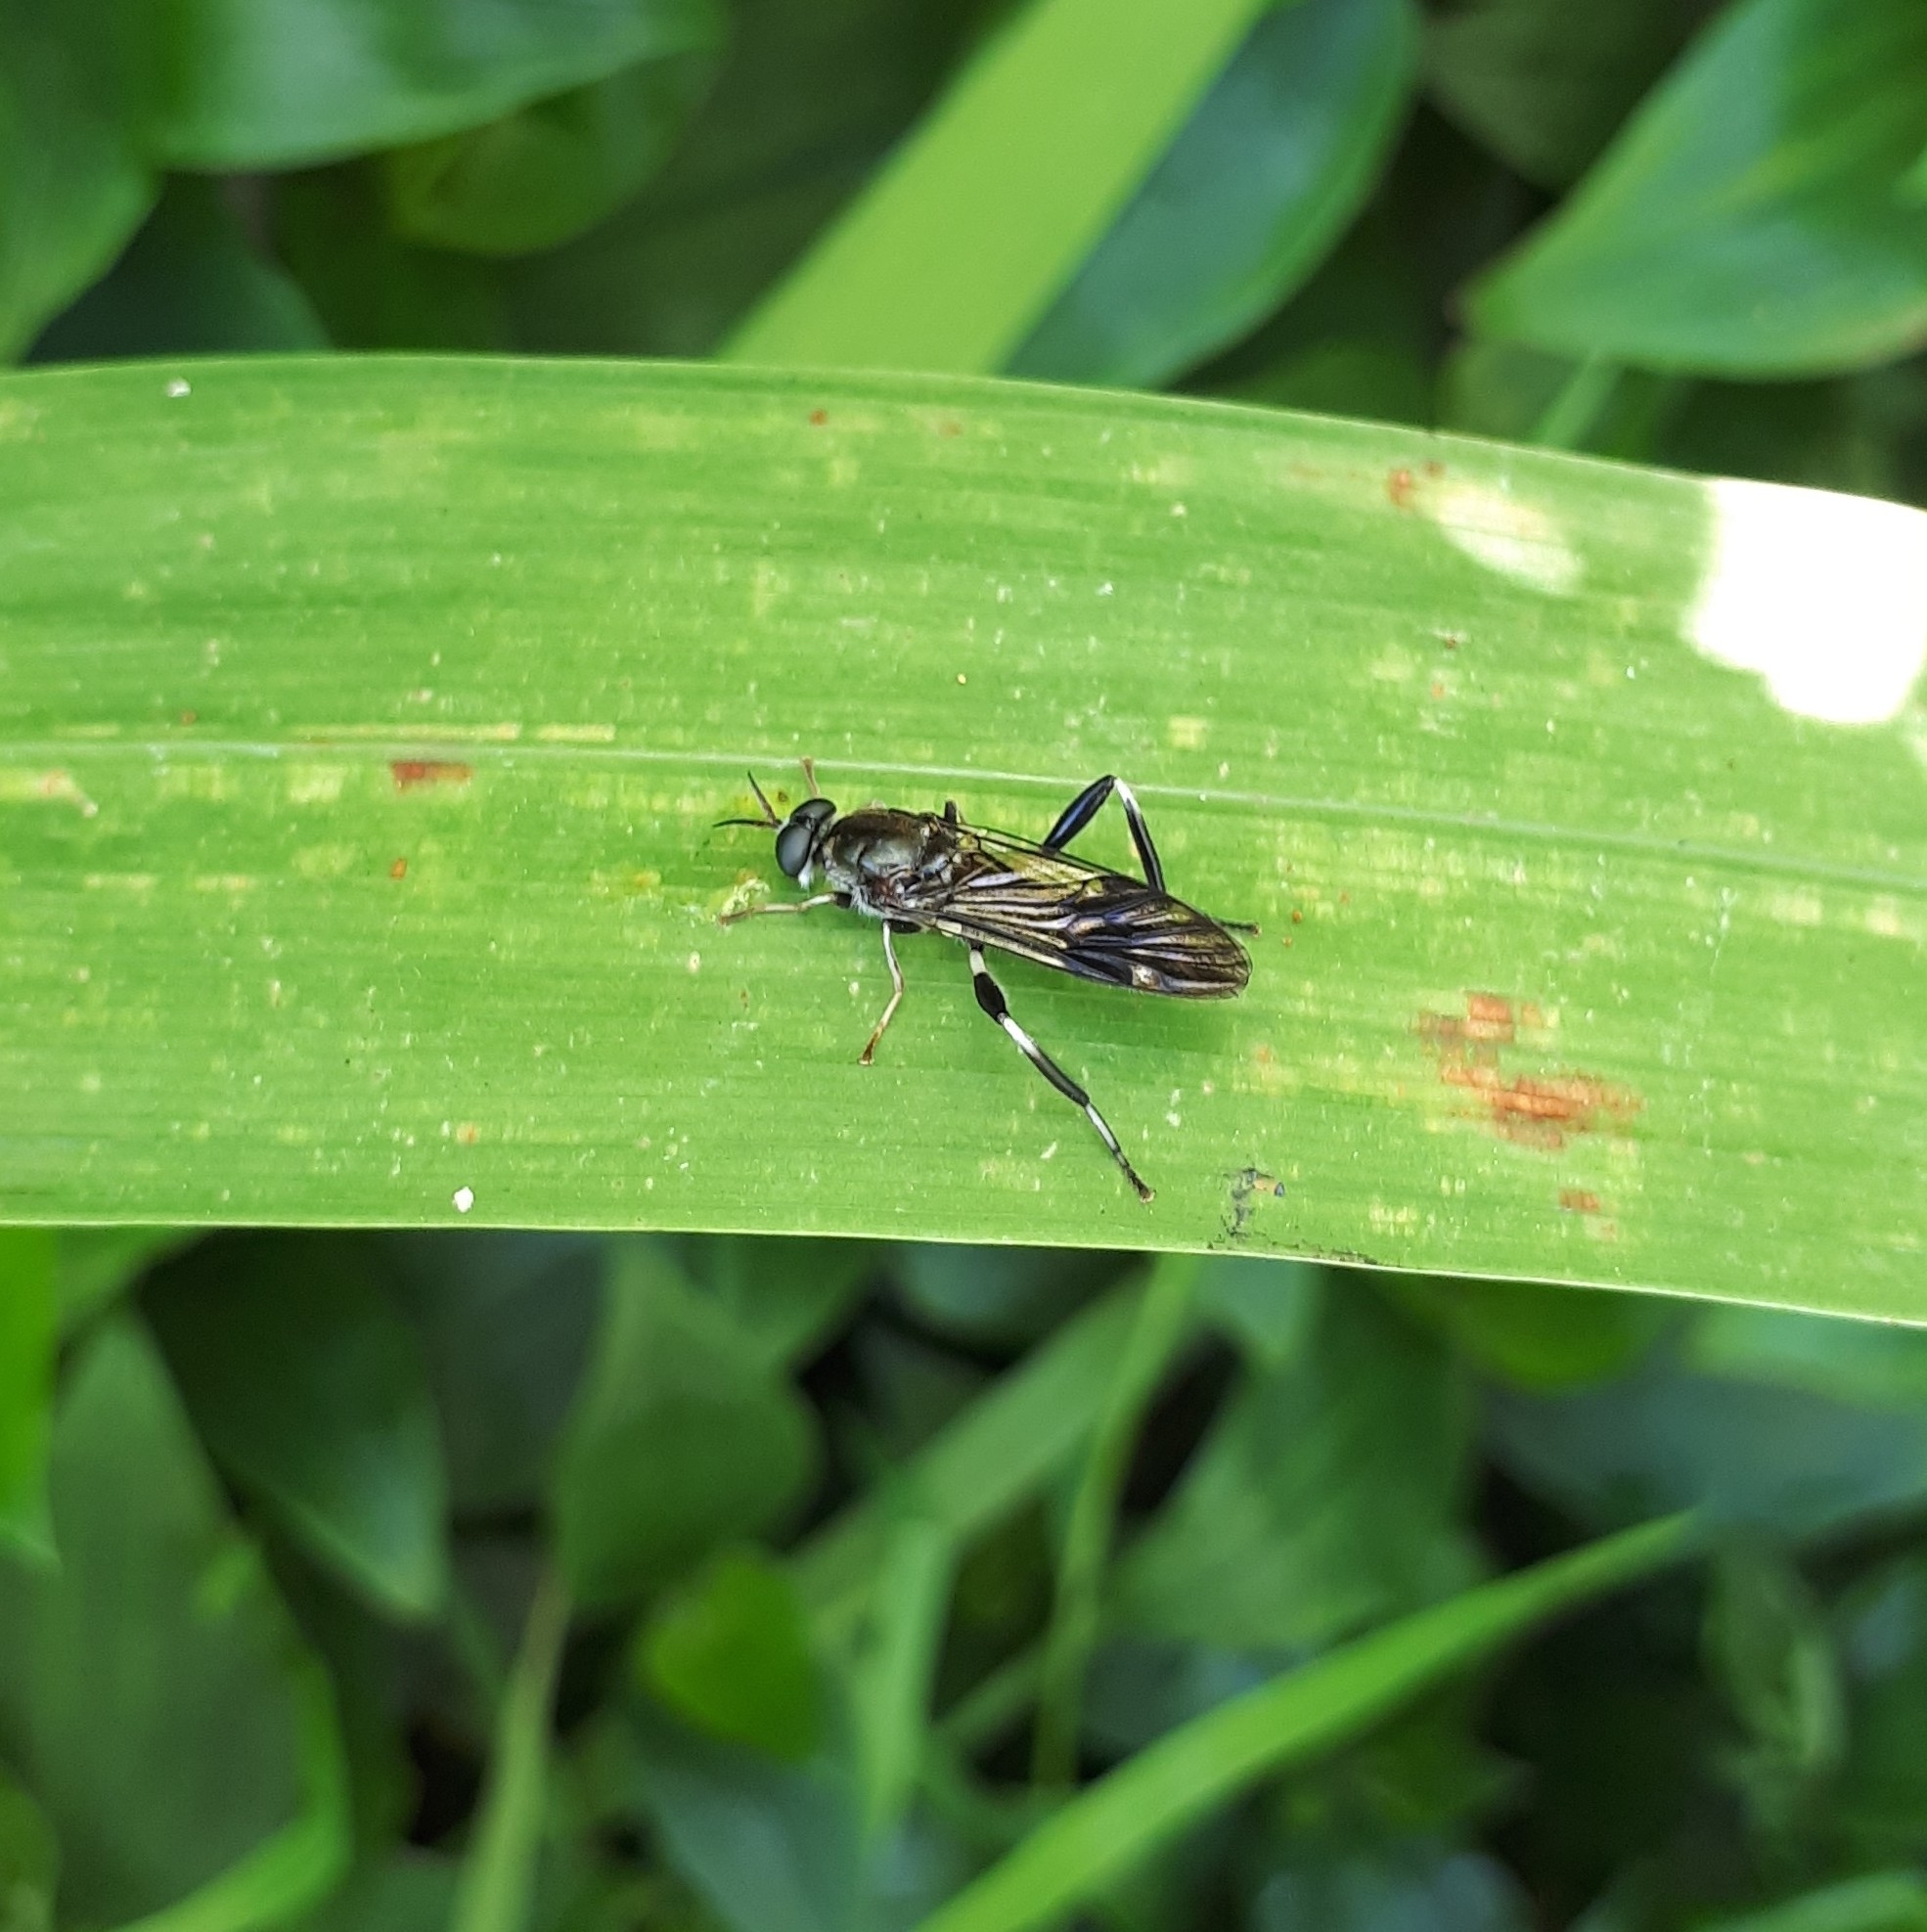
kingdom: Animalia
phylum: Arthropoda
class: Insecta
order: Diptera
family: Stratiomyidae
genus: Exaireta
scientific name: Exaireta spinigera
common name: Blue soldier fly
